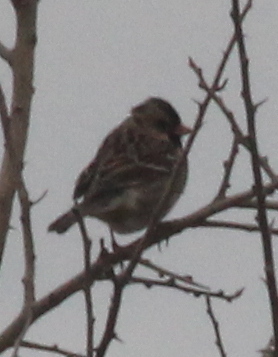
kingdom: Animalia
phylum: Chordata
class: Aves
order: Passeriformes
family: Passerellidae
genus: Zonotrichia
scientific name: Zonotrichia querula
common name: Harris's sparrow
